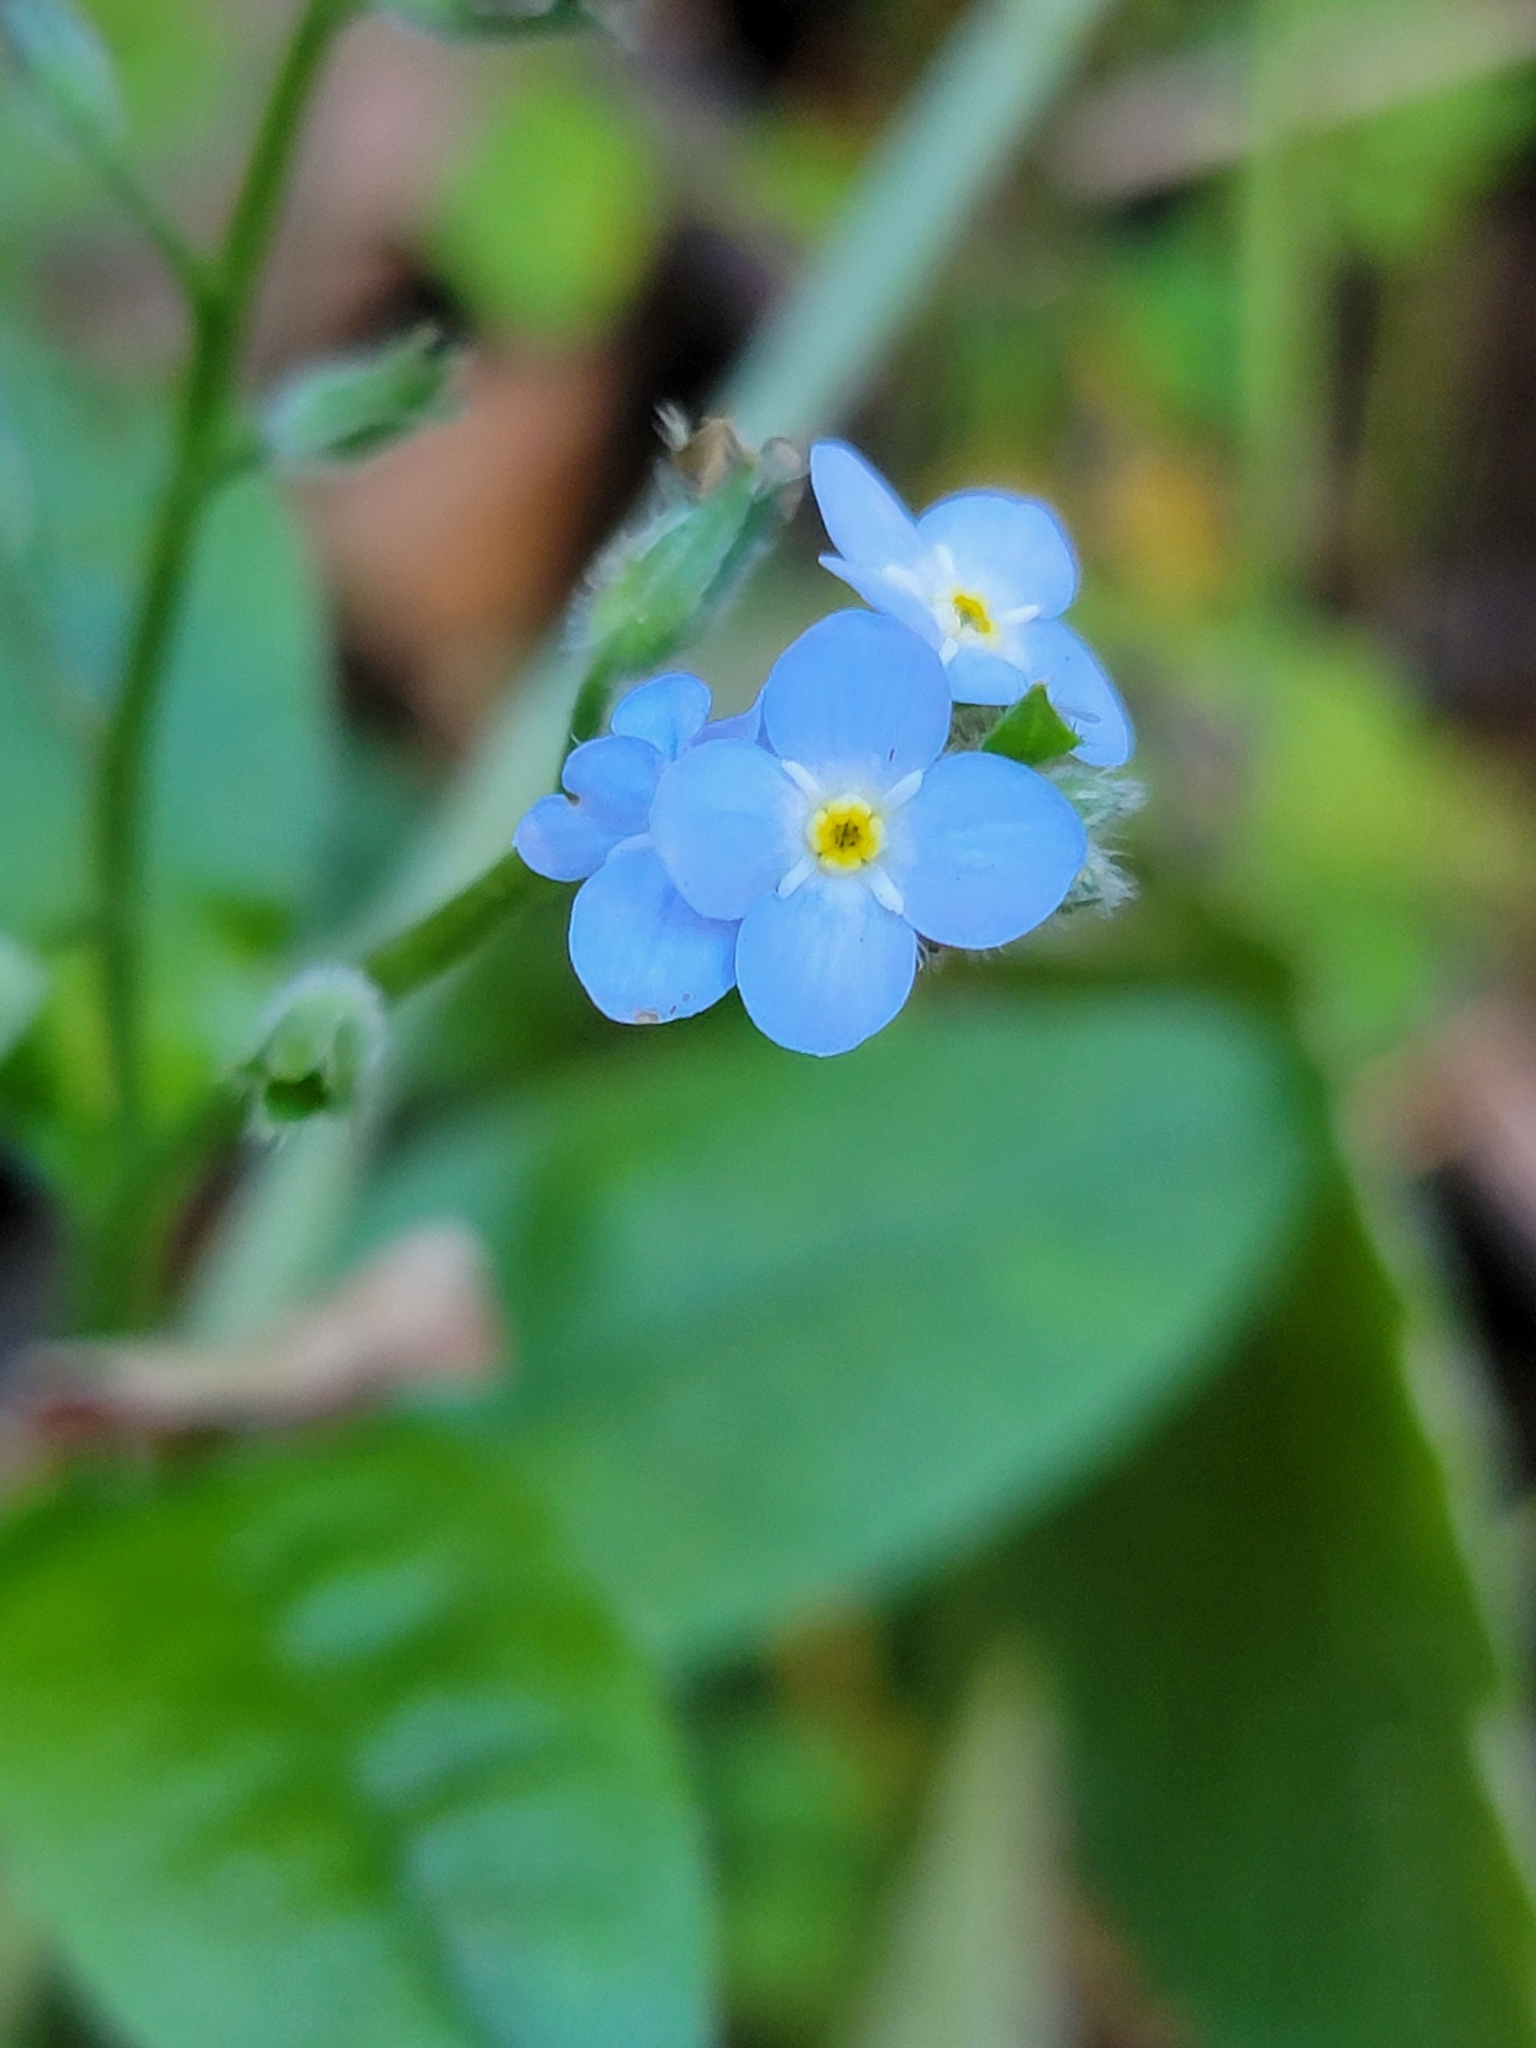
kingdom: Plantae
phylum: Tracheophyta
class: Magnoliopsida
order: Boraginales
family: Boraginaceae
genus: Myosotis
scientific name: Myosotis latifolia
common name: Broadleaf forget-me-not
